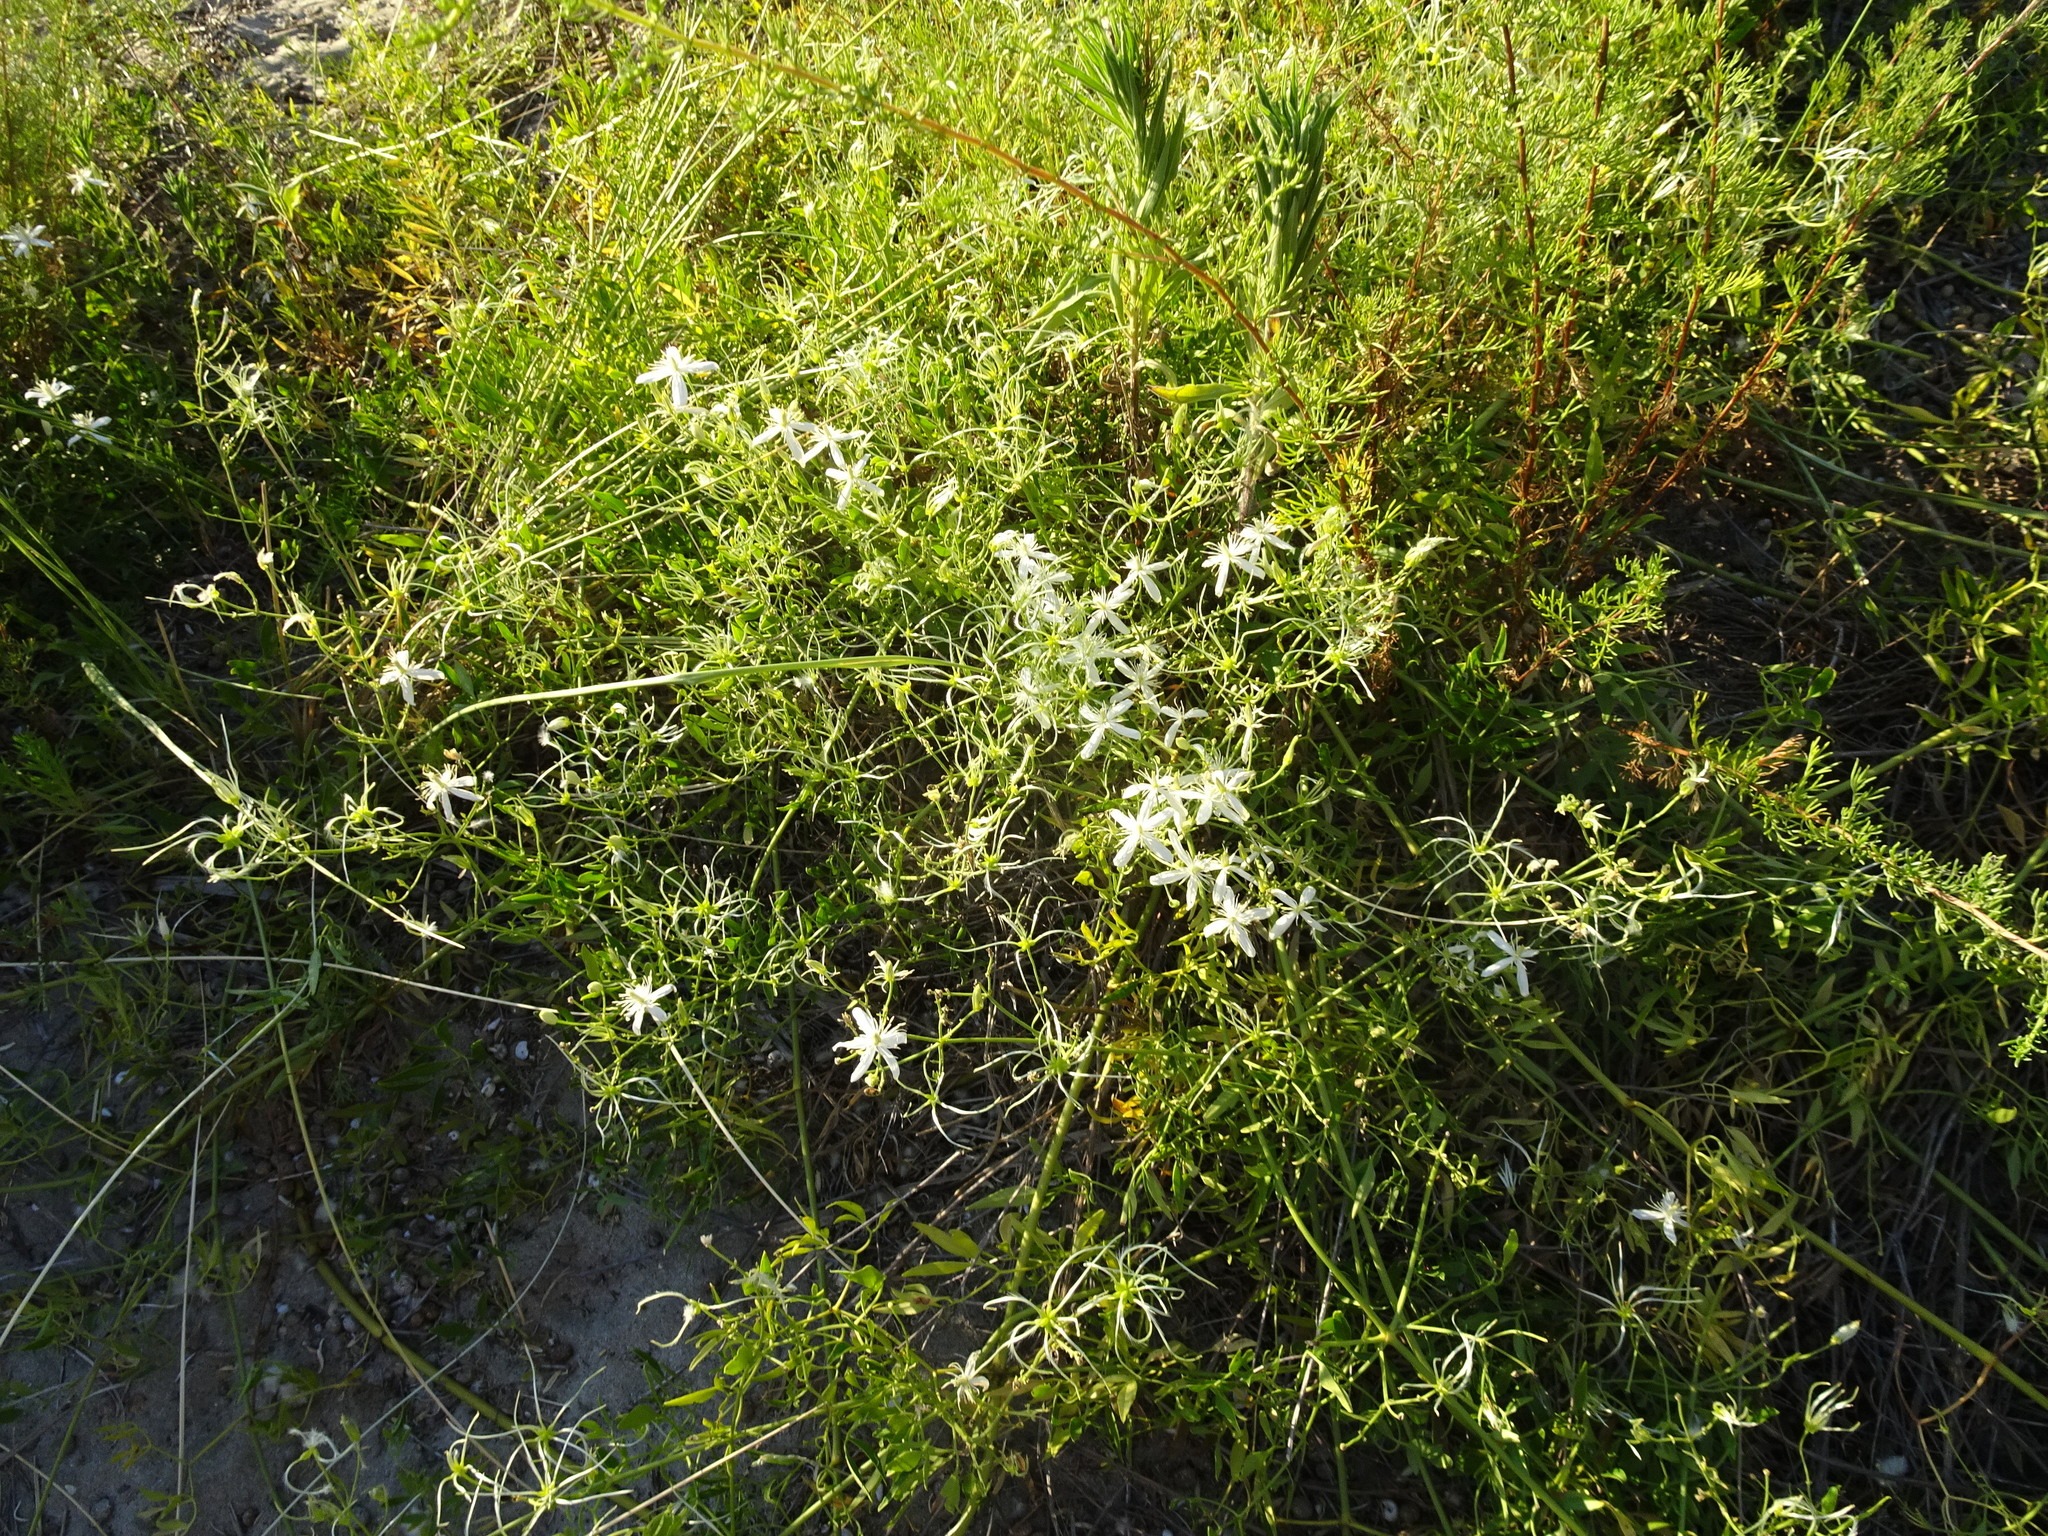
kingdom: Plantae
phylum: Tracheophyta
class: Magnoliopsida
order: Ranunculales
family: Ranunculaceae
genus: Clematis
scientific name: Clematis flammula
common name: Virgin's-bower
